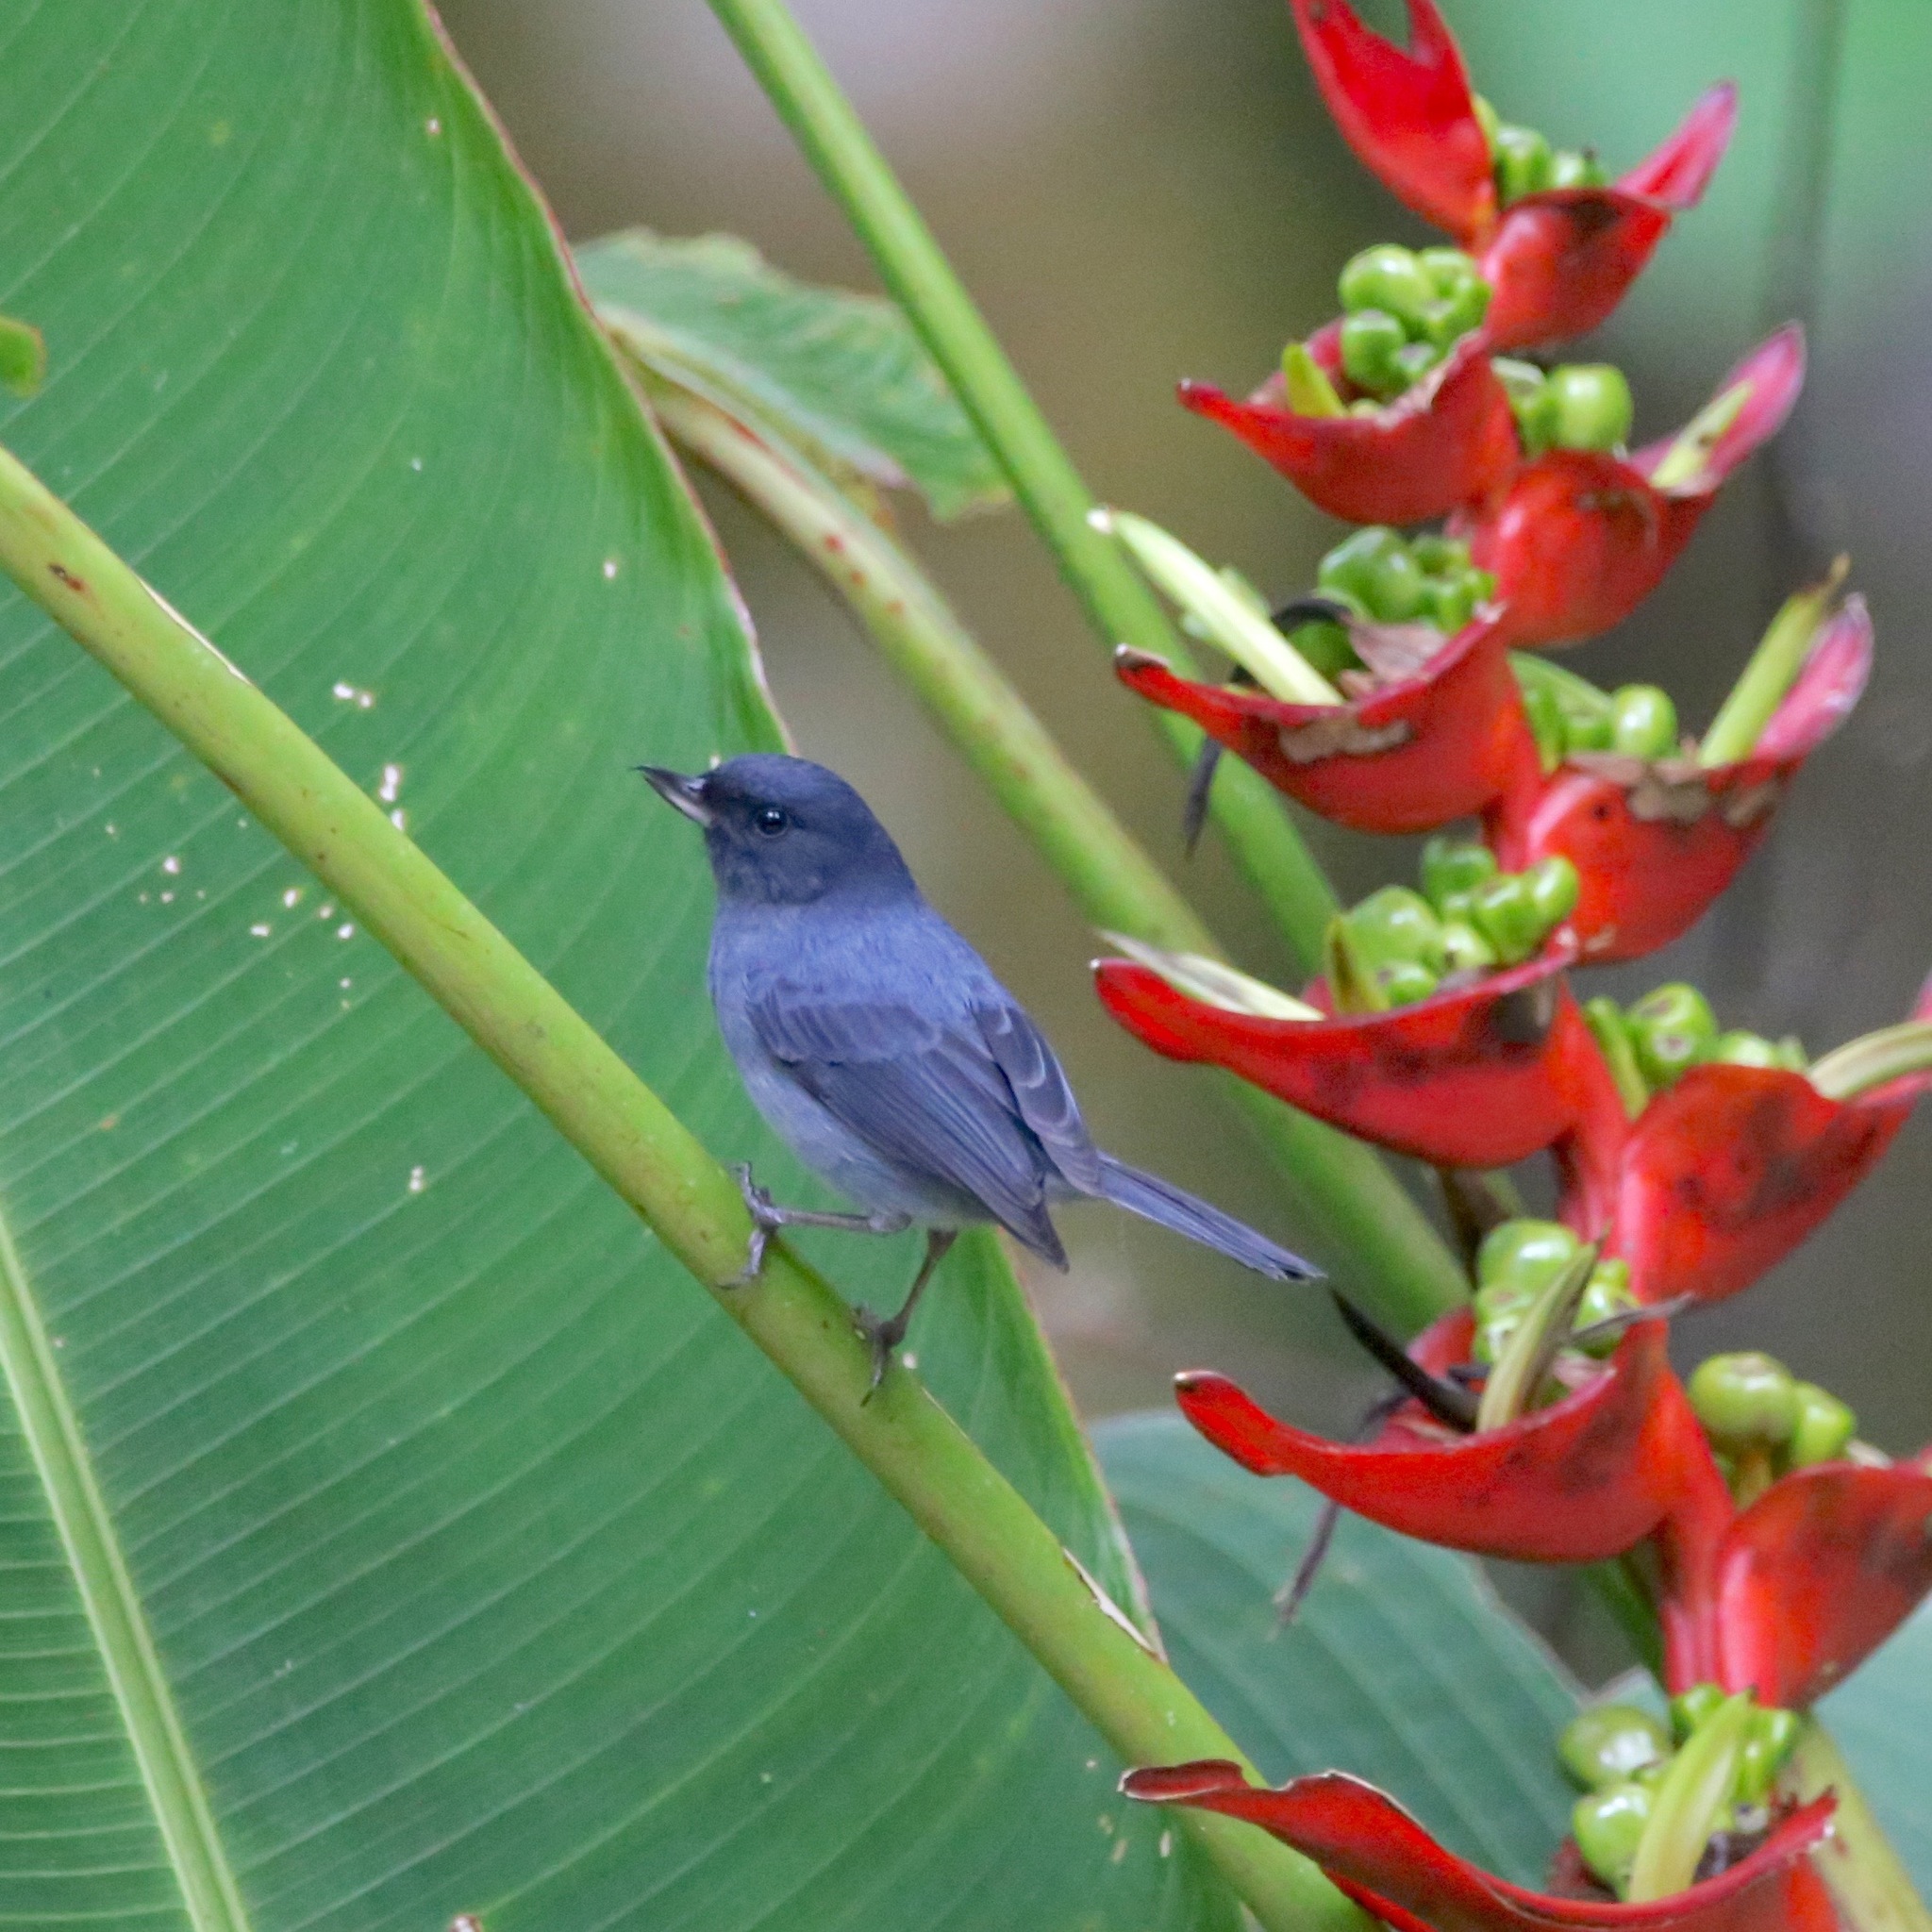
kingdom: Animalia
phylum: Chordata
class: Aves
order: Passeriformes
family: Thraupidae
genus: Diglossa
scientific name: Diglossa plumbea
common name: Slaty flowerpiercer
